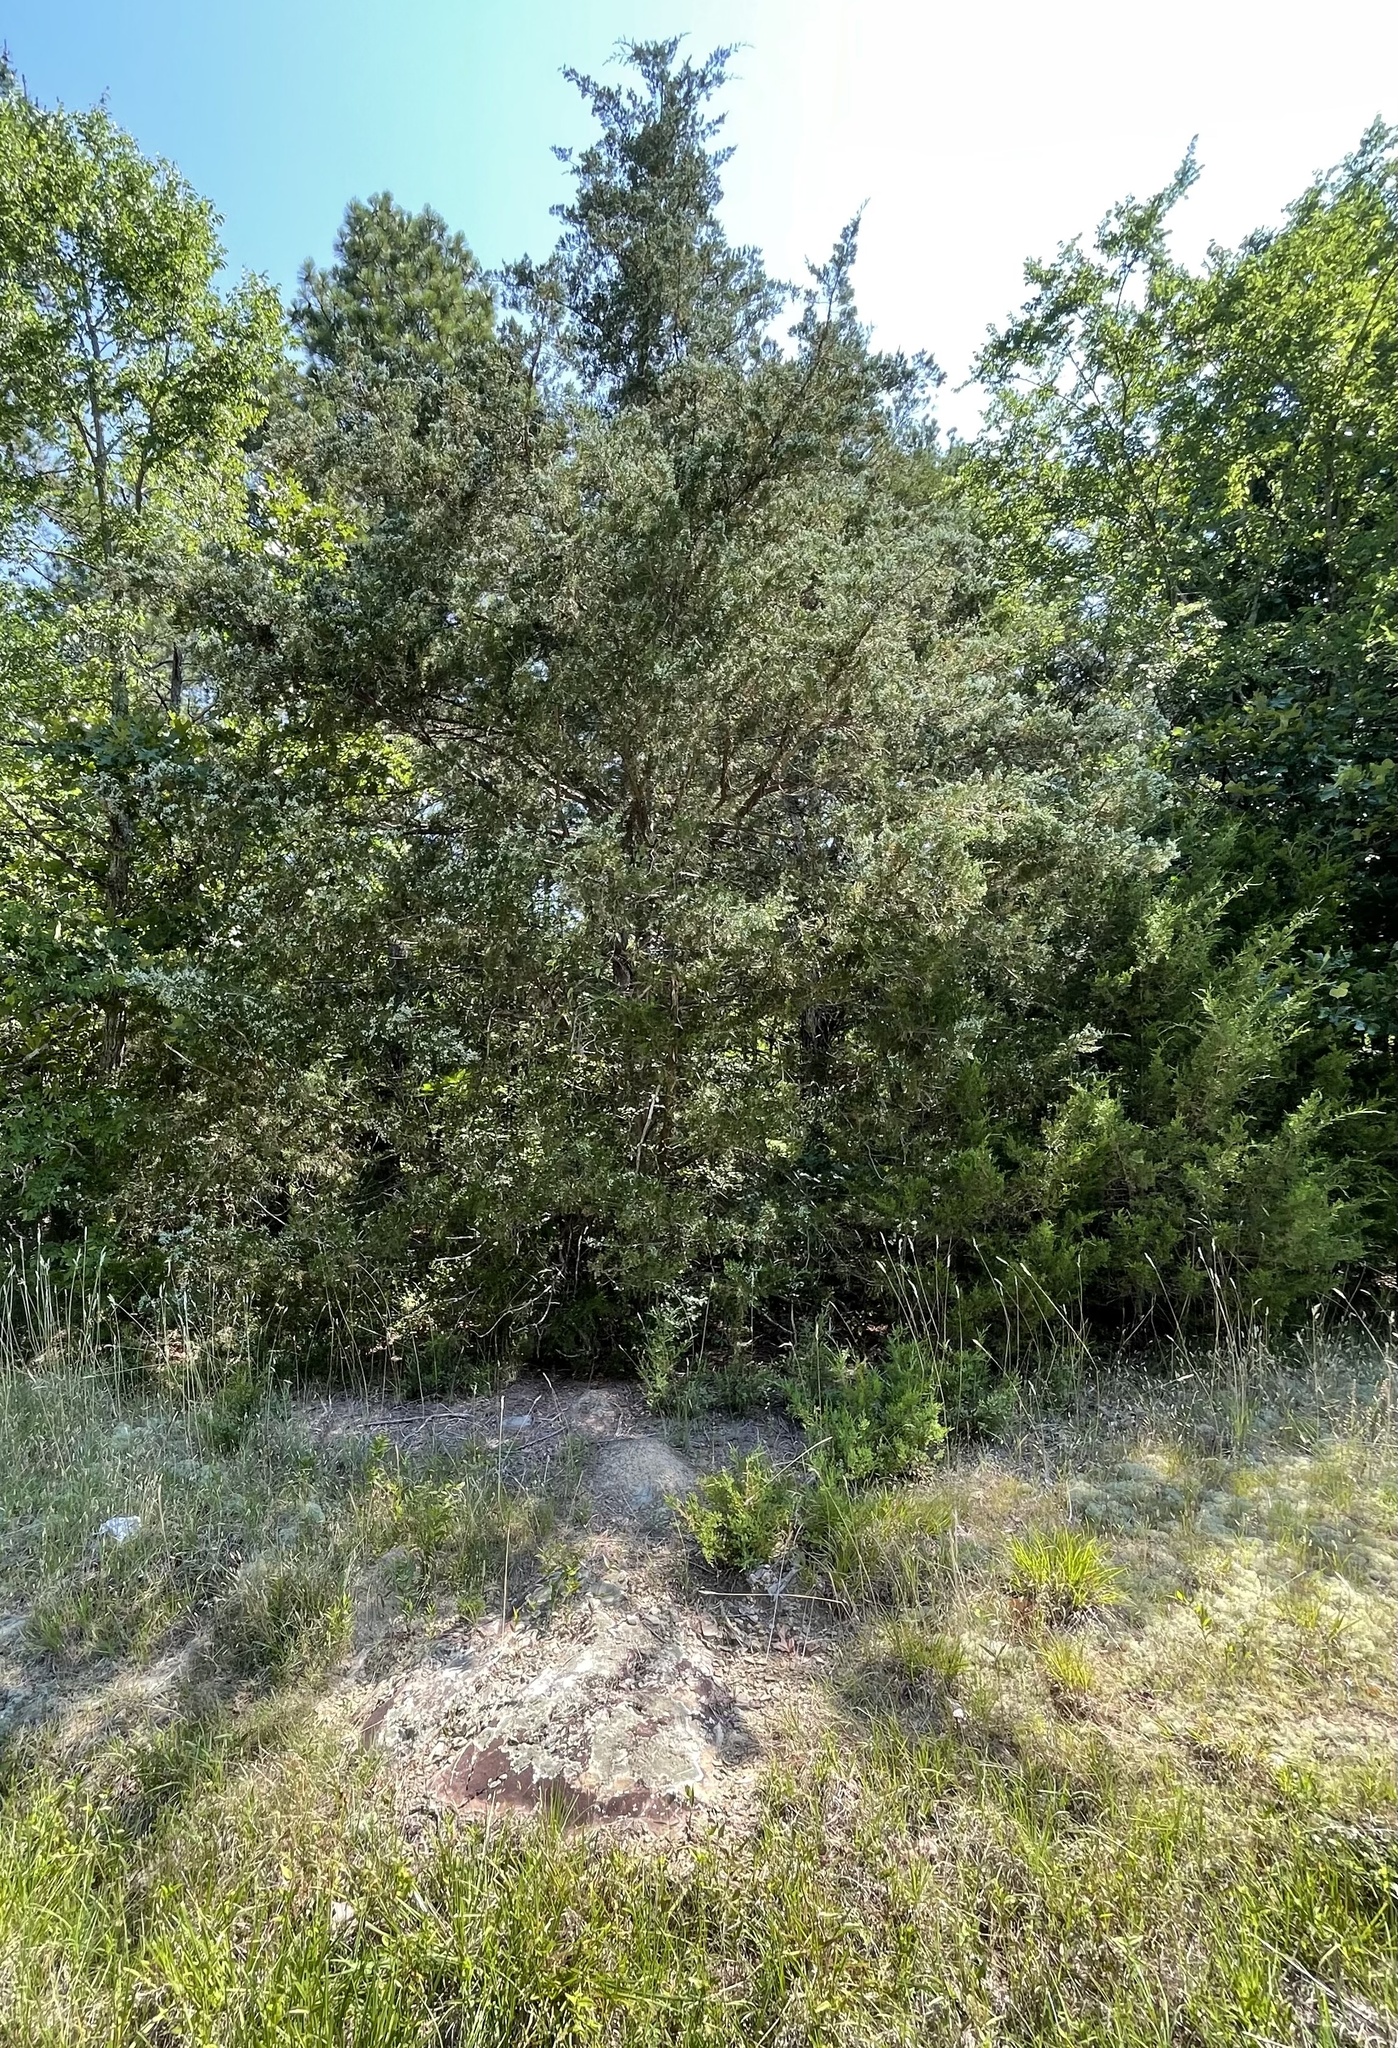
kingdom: Plantae
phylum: Tracheophyta
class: Pinopsida
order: Pinales
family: Cupressaceae
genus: Juniperus
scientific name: Juniperus virginiana
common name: Red juniper
